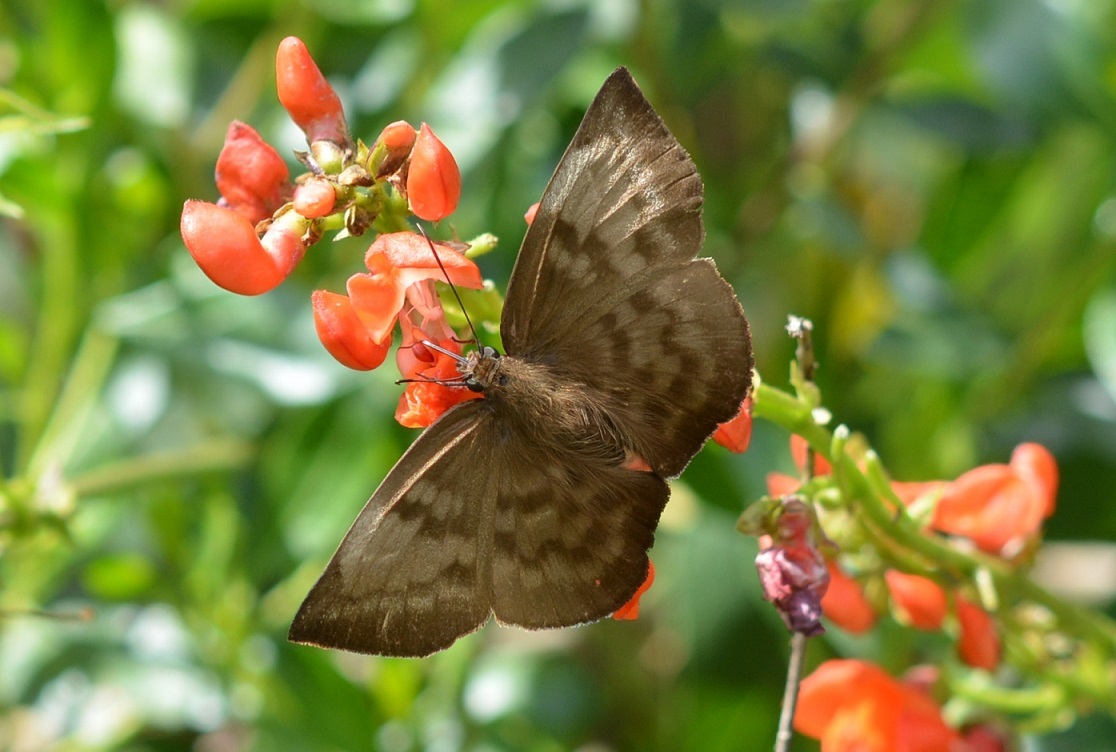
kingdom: Animalia
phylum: Arthropoda
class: Insecta
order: Lepidoptera
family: Hesperiidae
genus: Achlyodes
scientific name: Achlyodes pallida
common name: Pale sicklewing
